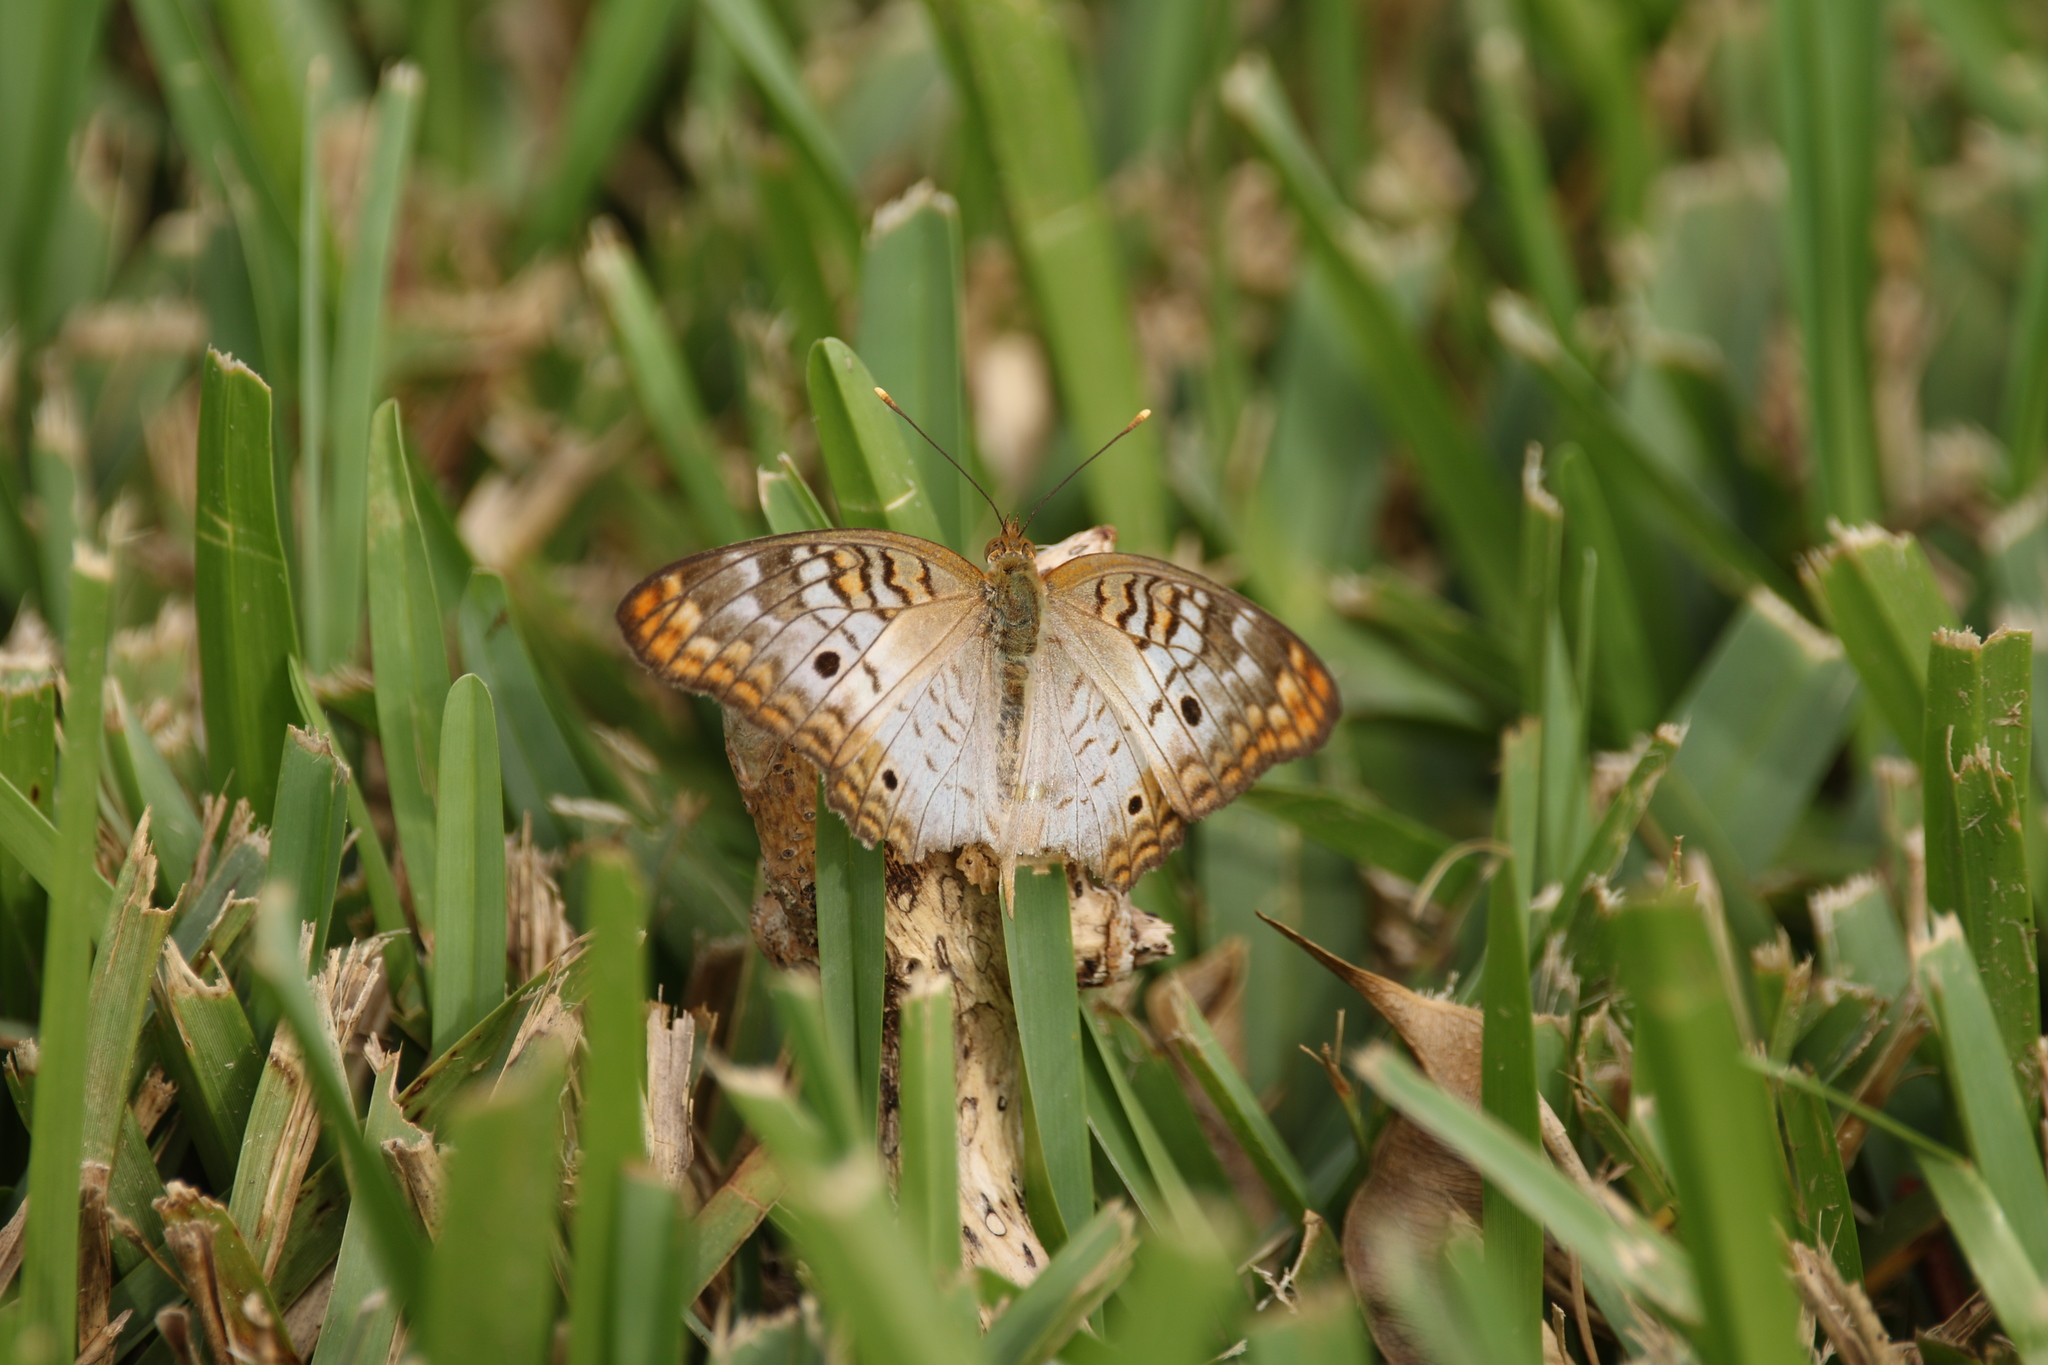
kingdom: Animalia
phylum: Arthropoda
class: Insecta
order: Lepidoptera
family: Nymphalidae
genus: Anartia
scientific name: Anartia jatrophae
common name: White peacock
